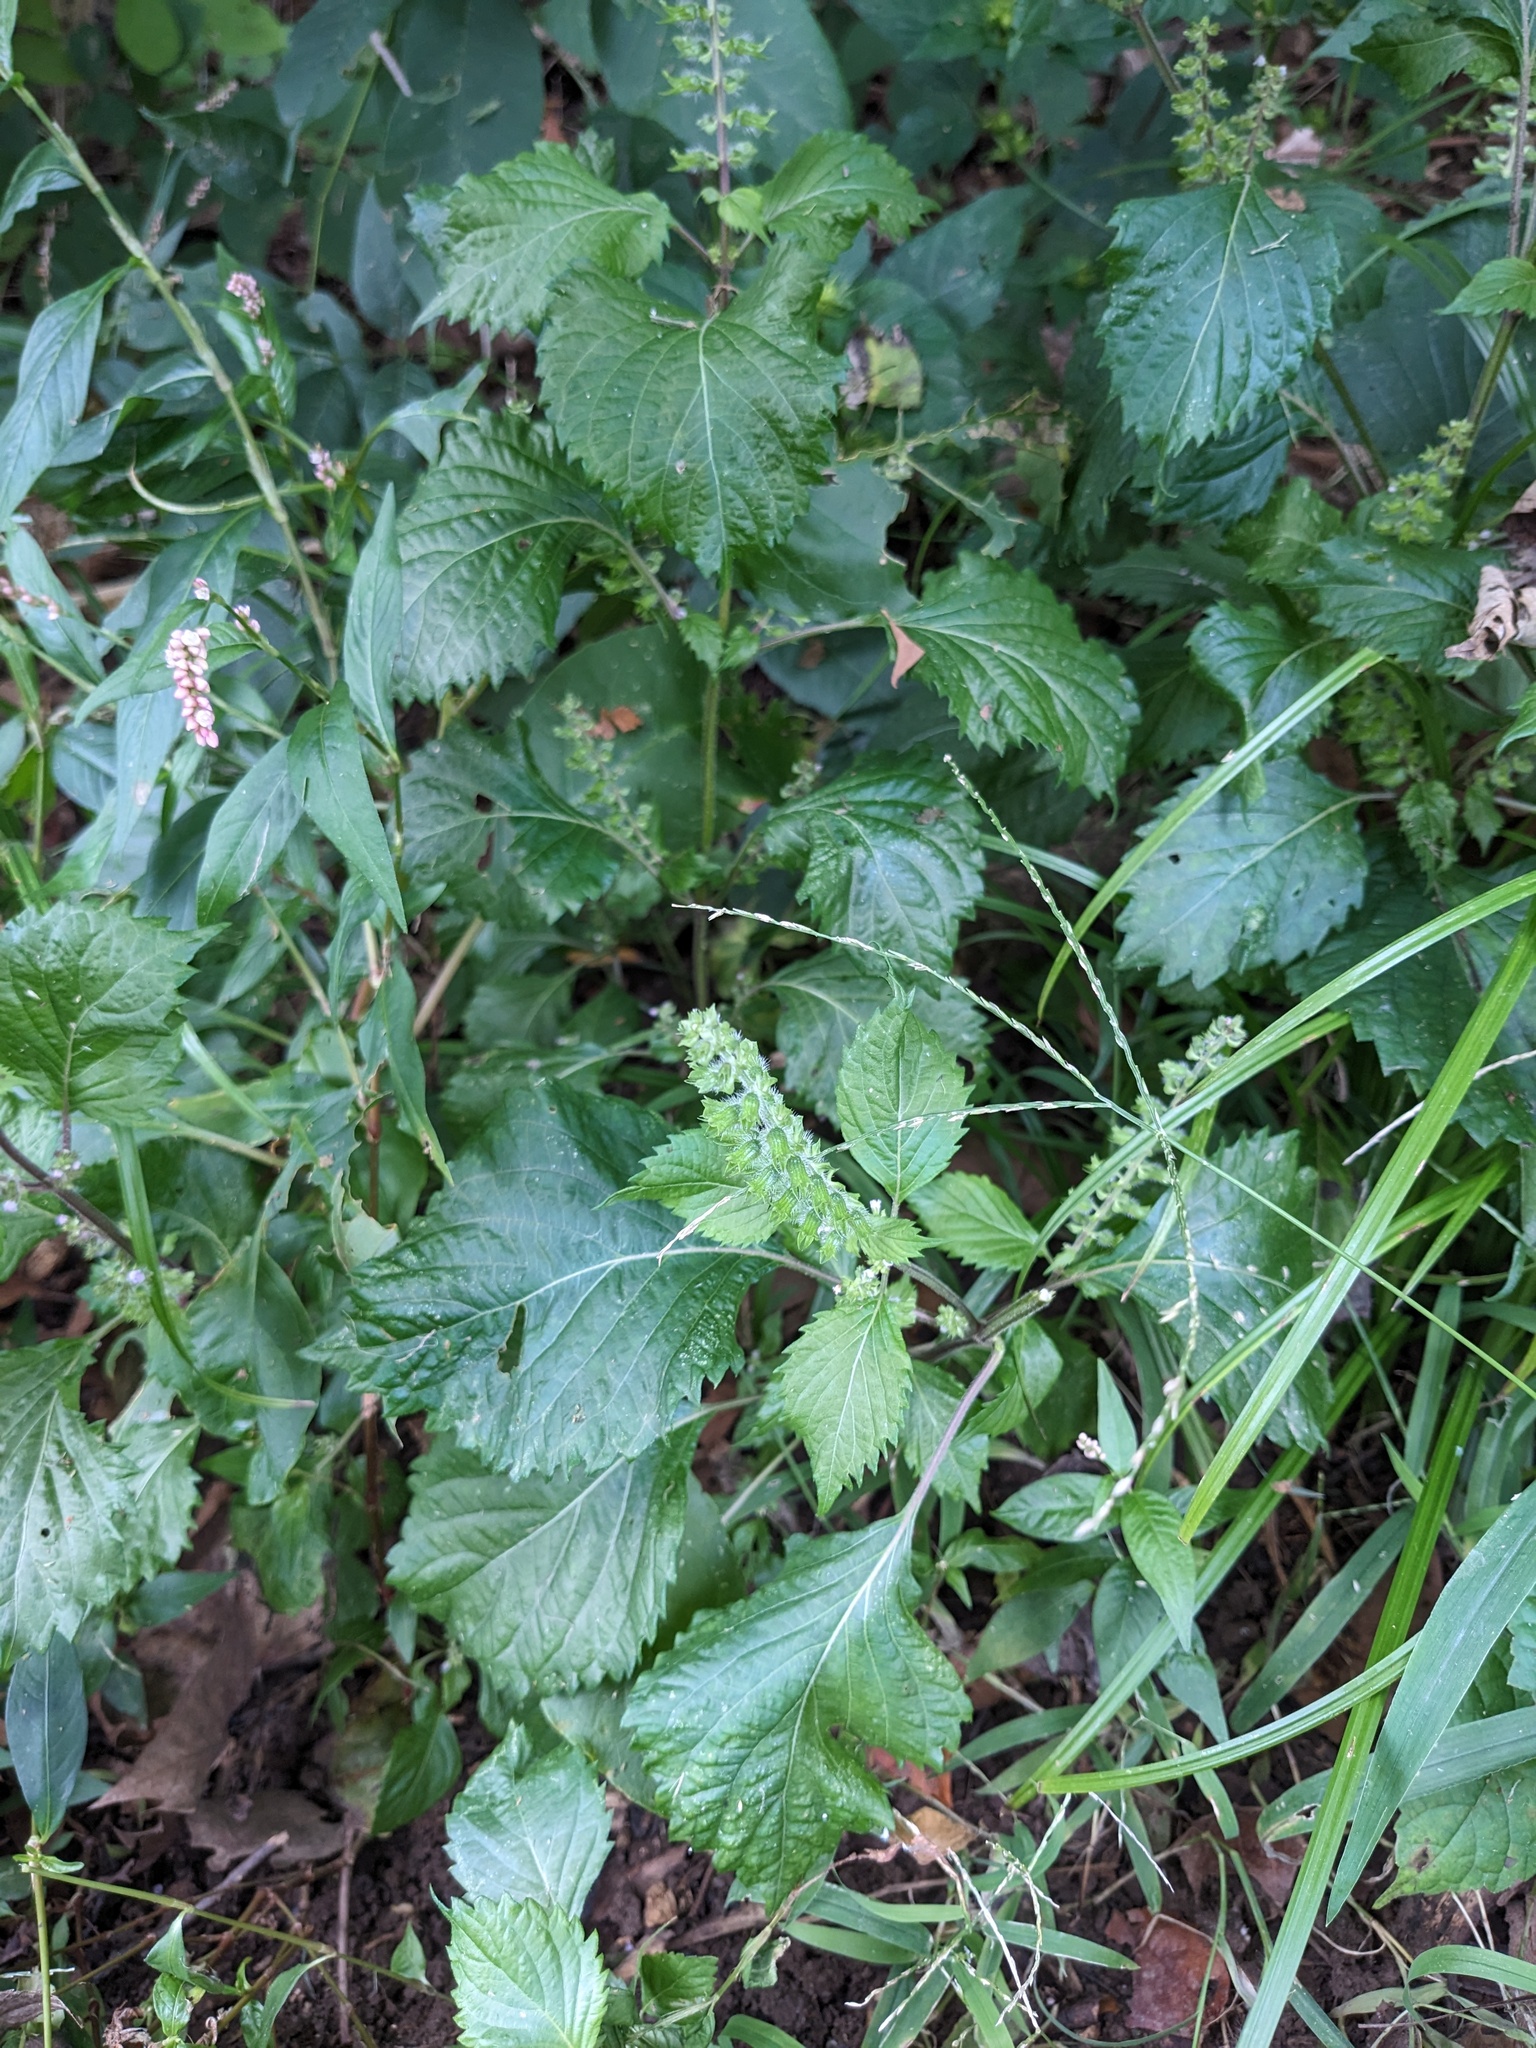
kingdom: Plantae
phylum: Tracheophyta
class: Magnoliopsida
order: Lamiales
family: Lamiaceae
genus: Perilla
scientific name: Perilla frutescens
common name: Perilla
